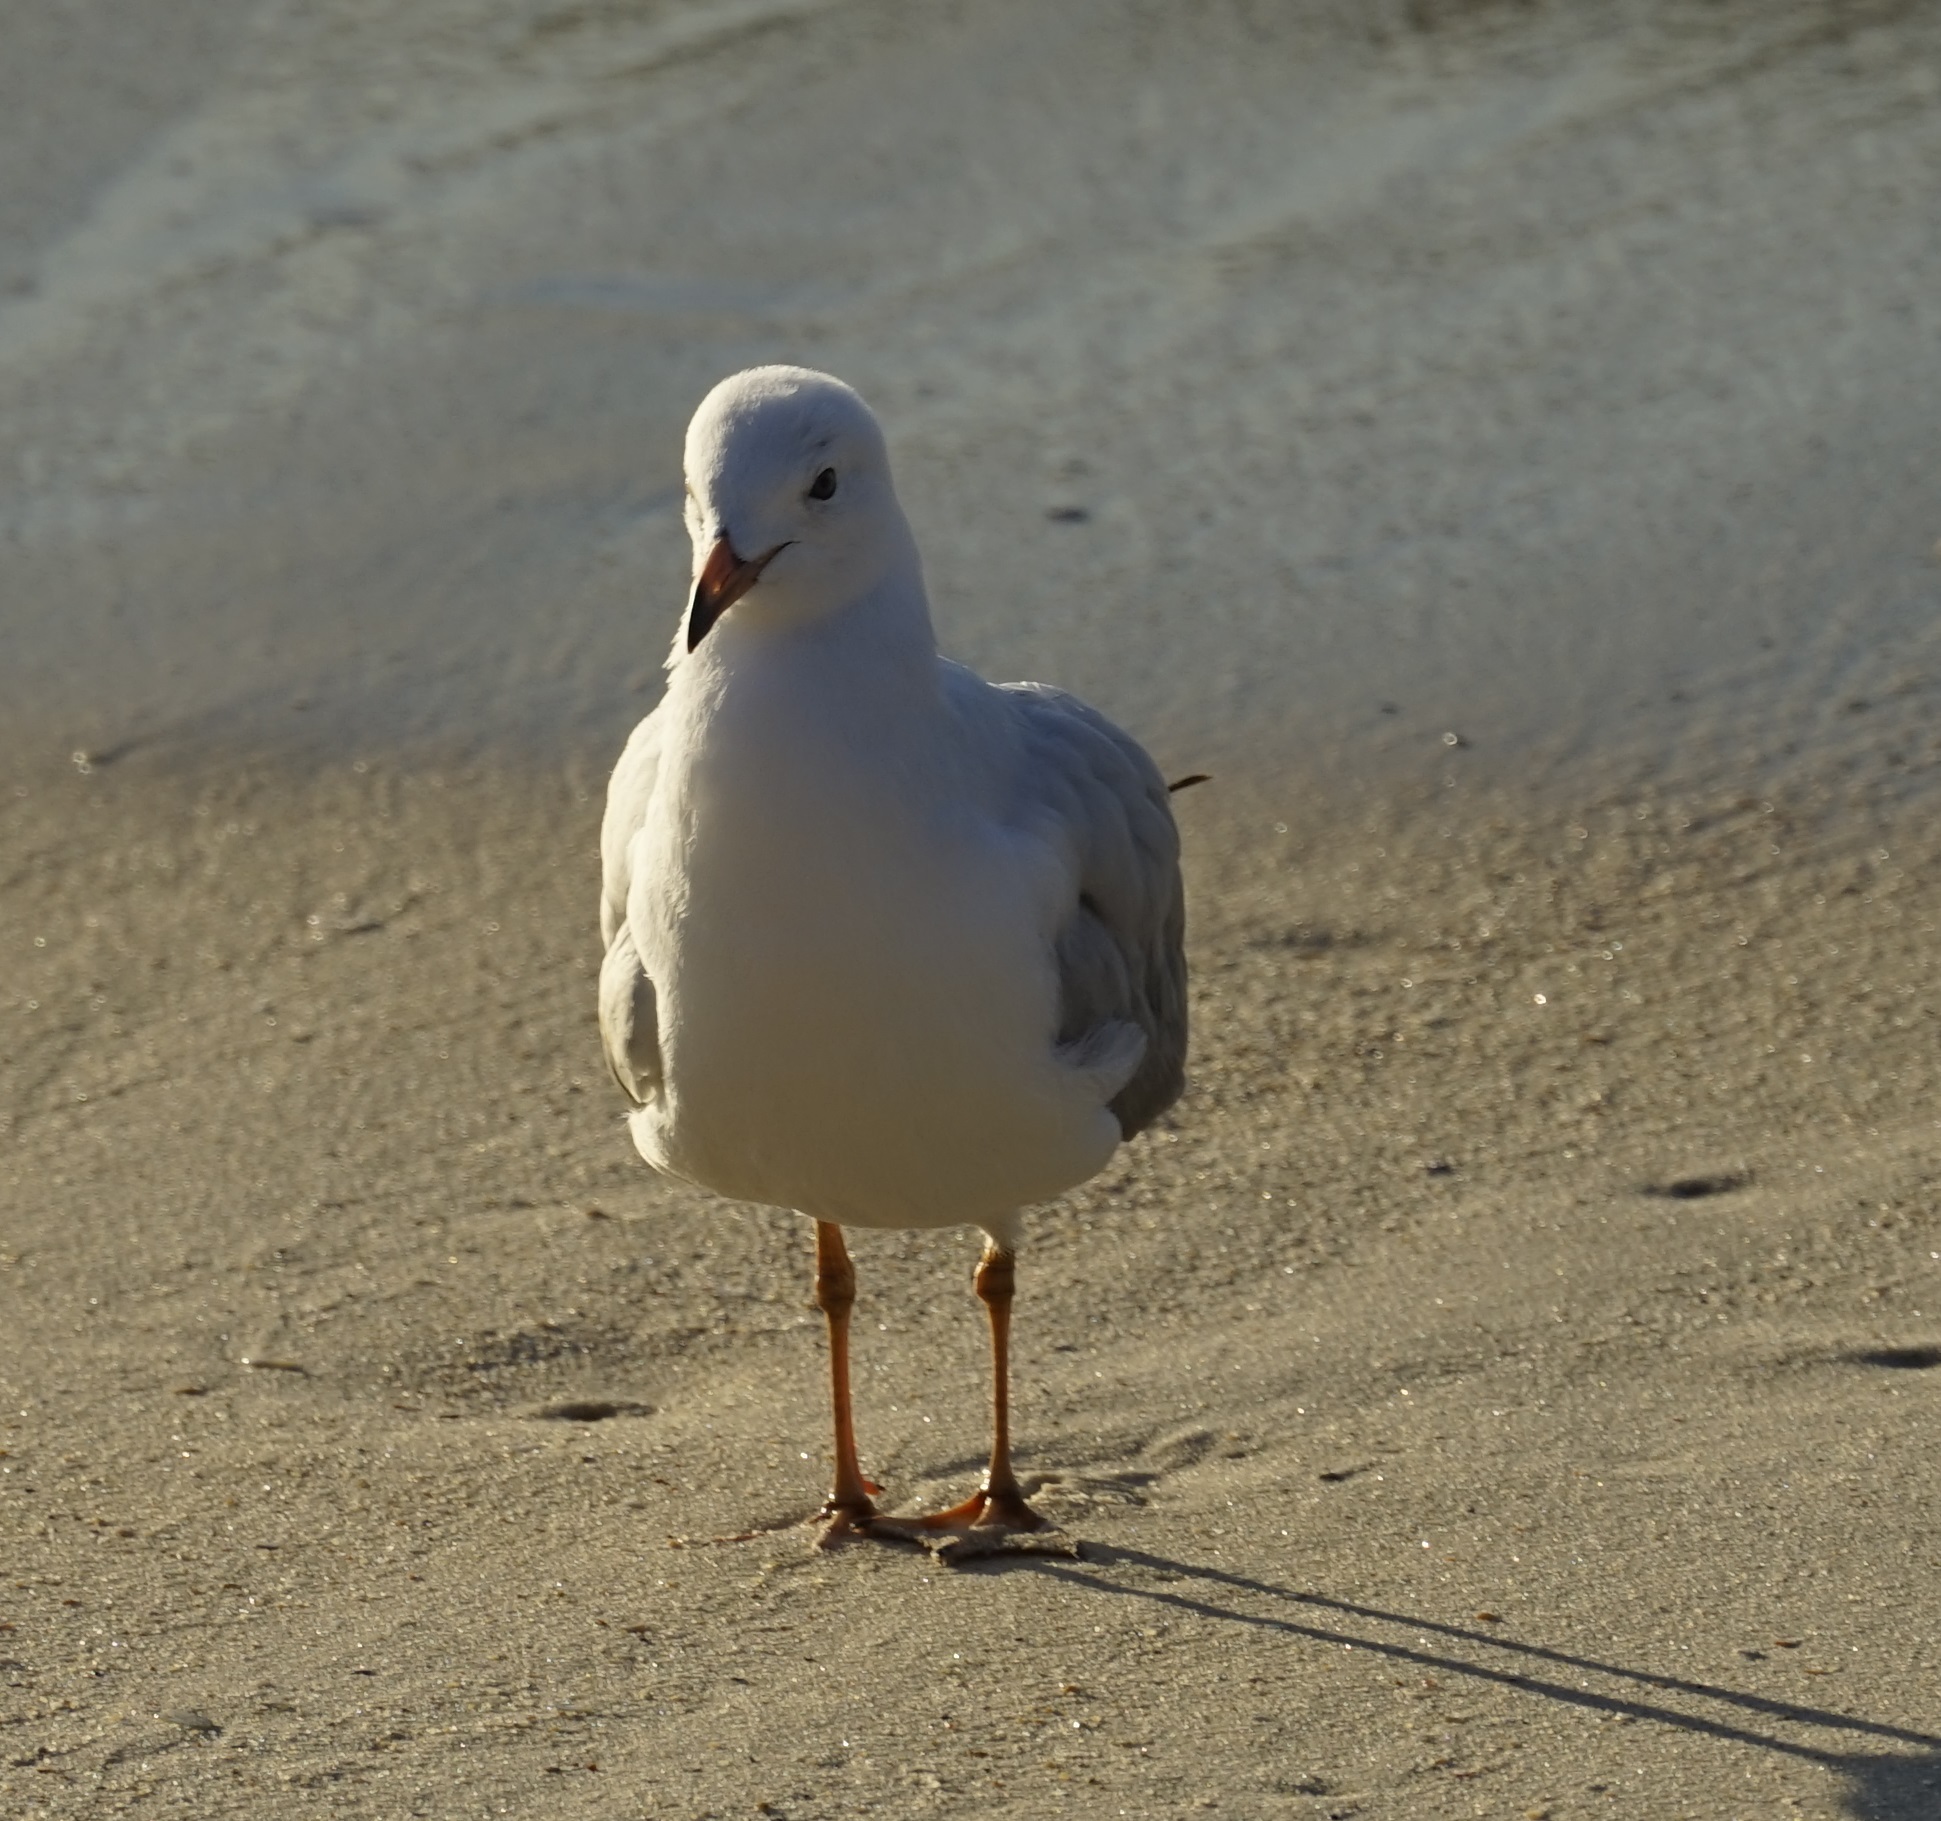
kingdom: Animalia
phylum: Chordata
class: Aves
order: Charadriiformes
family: Laridae
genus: Chroicocephalus
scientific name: Chroicocephalus novaehollandiae
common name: Silver gull
